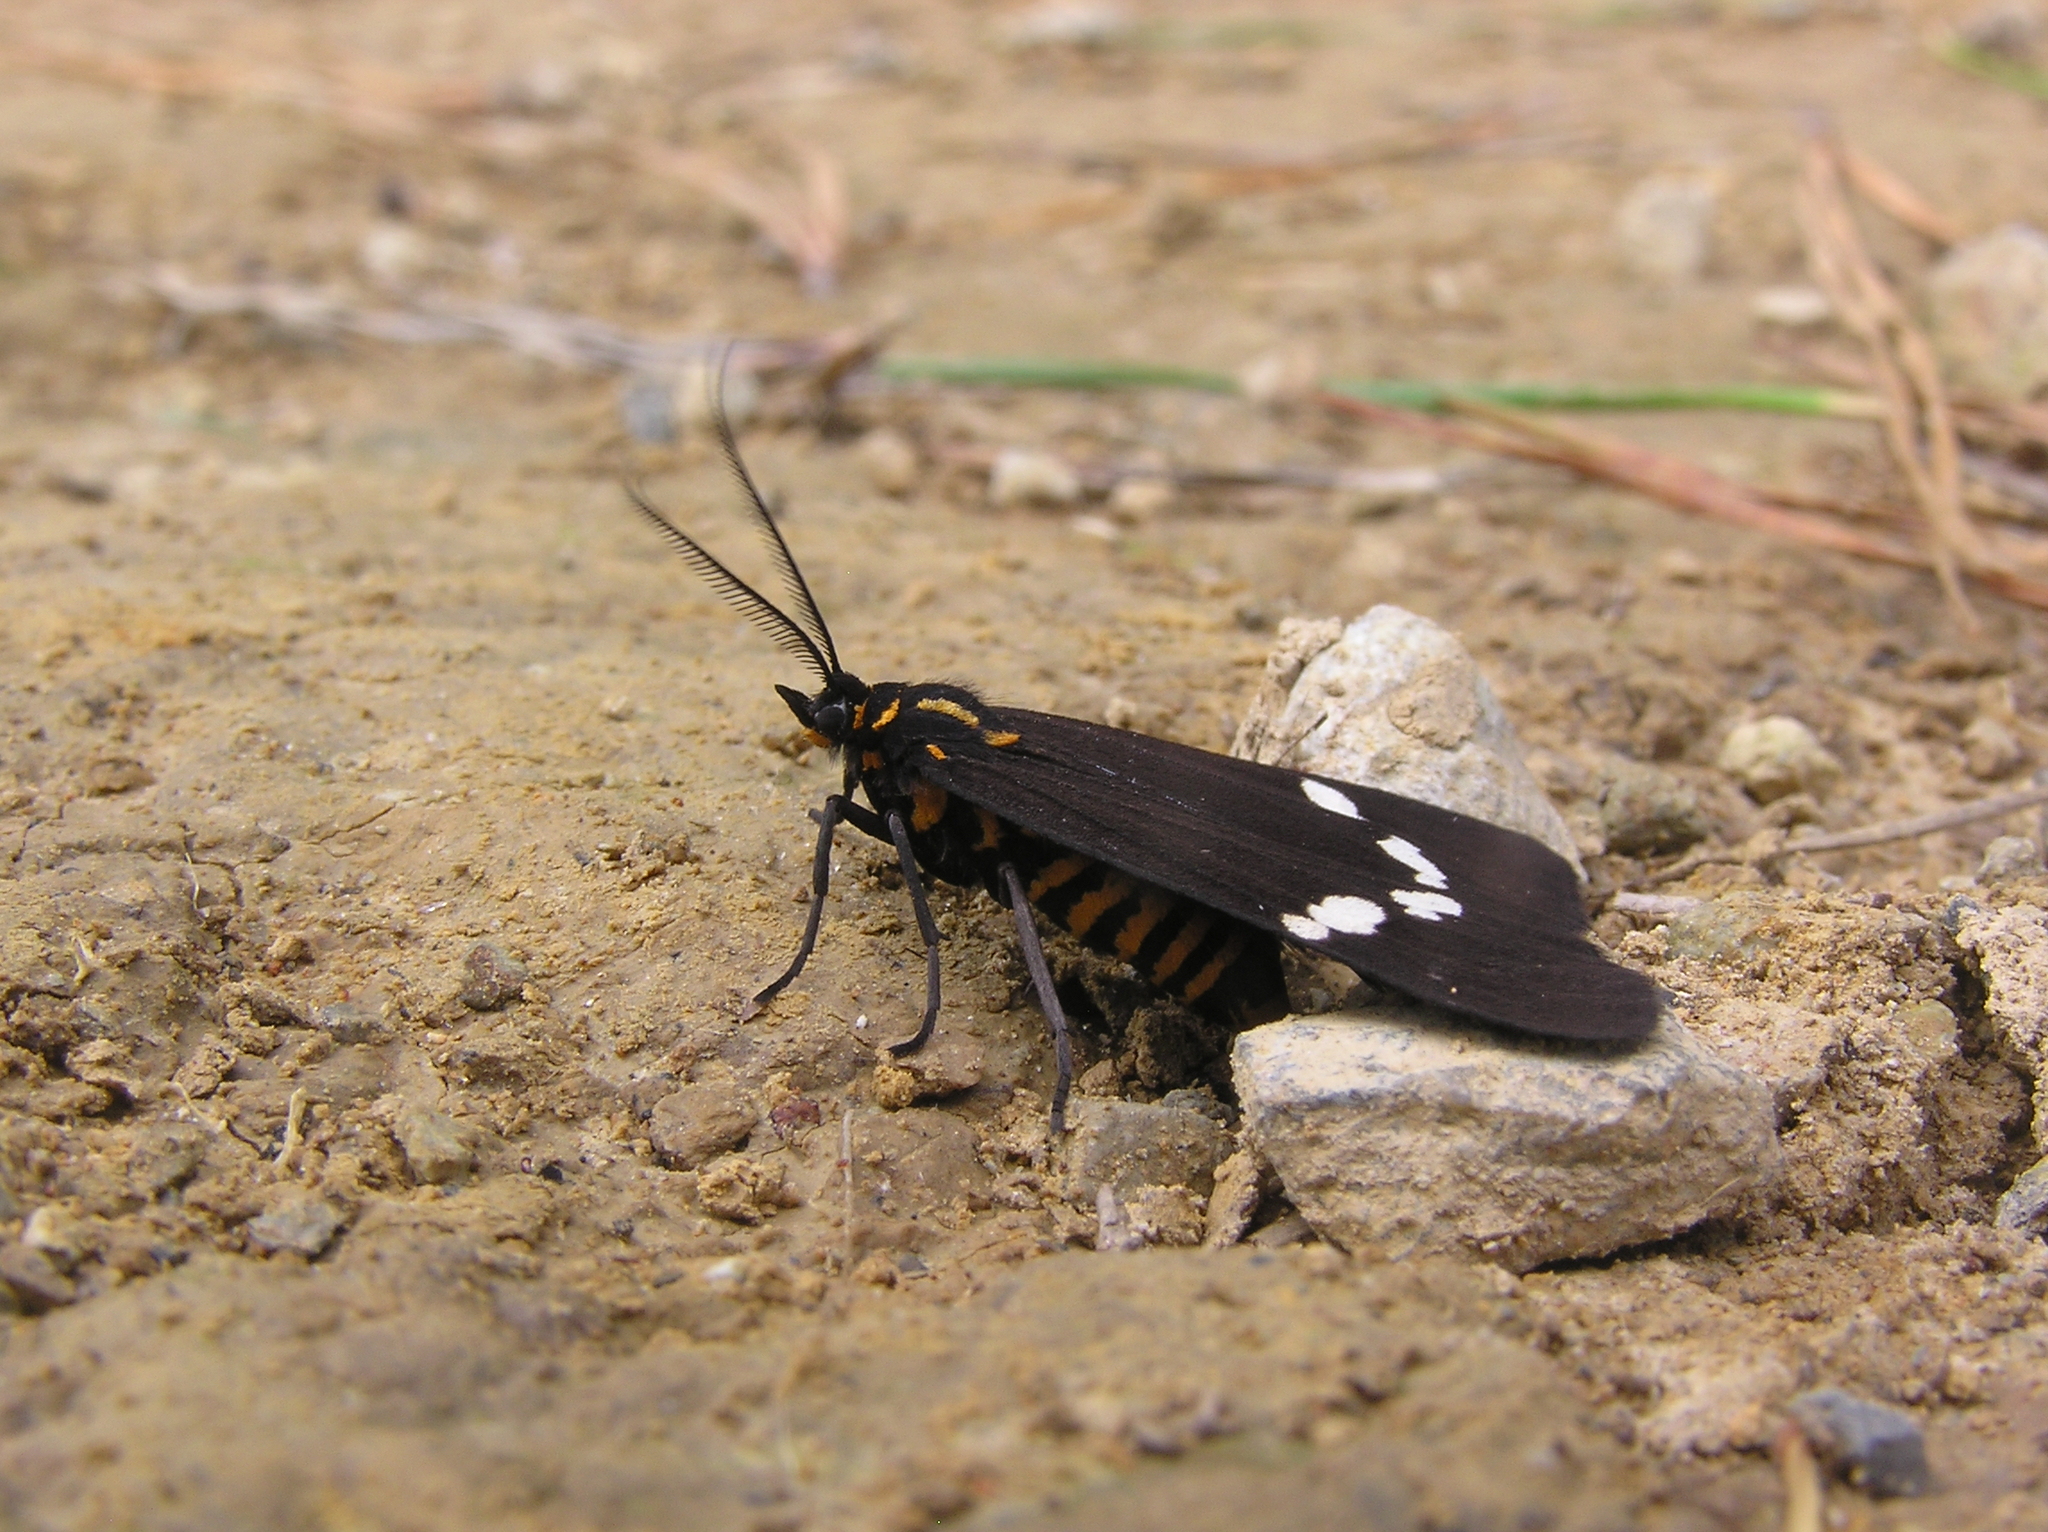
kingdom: Animalia
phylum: Arthropoda
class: Insecta
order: Lepidoptera
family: Erebidae
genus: Nyctemera
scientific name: Nyctemera annulatum
